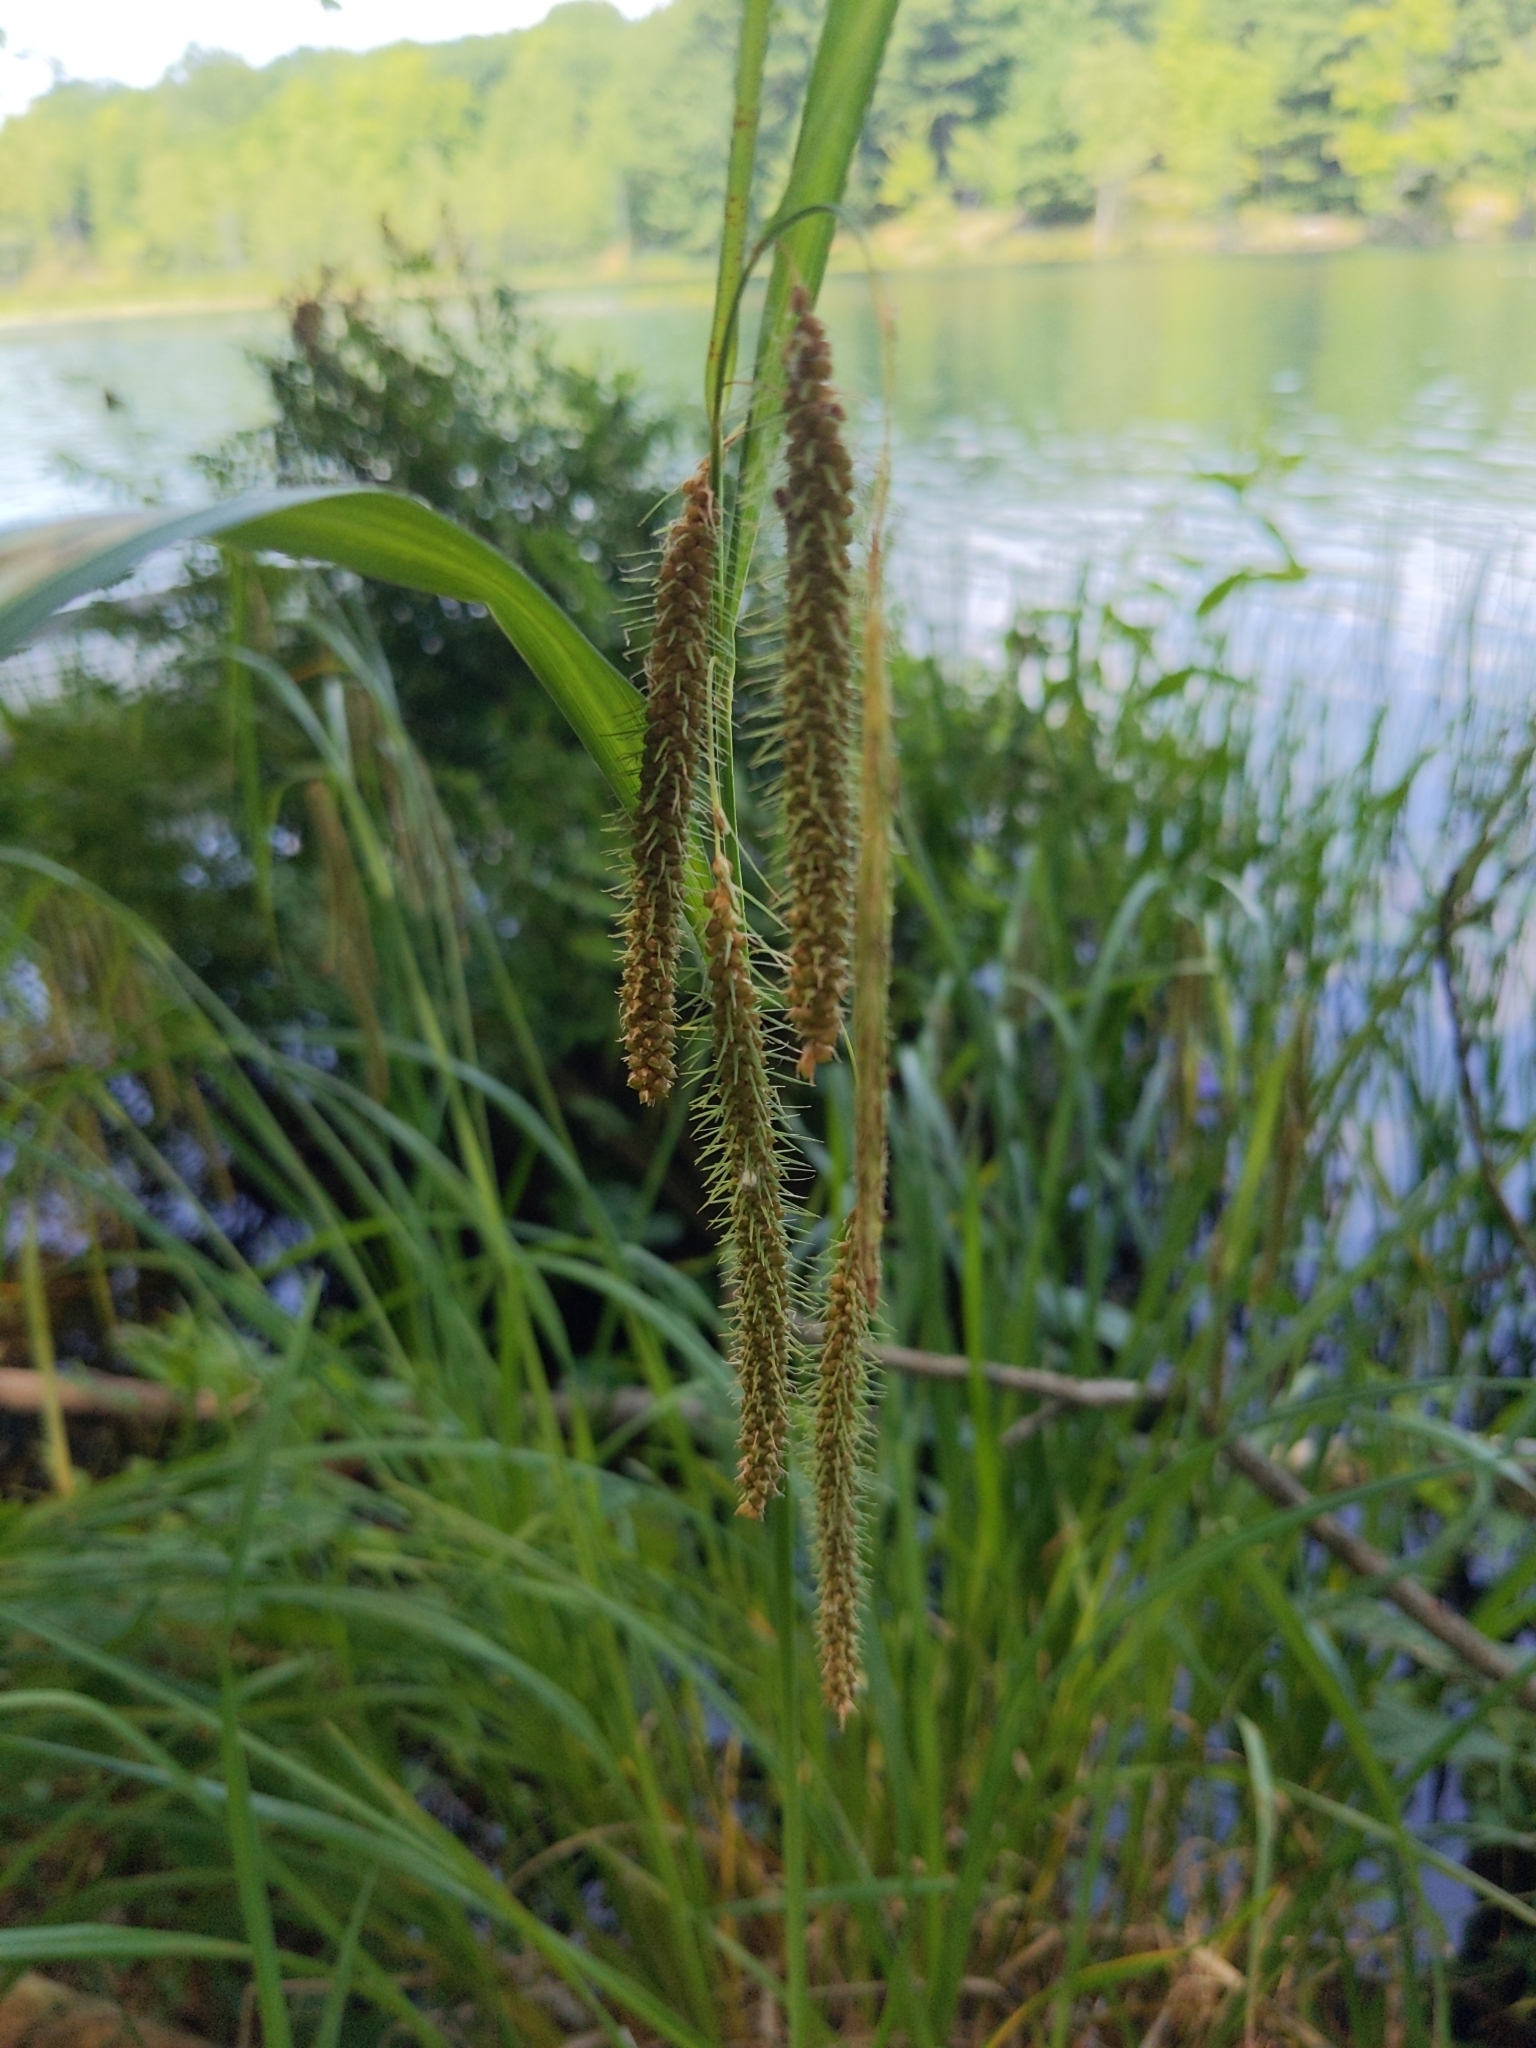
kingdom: Plantae
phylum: Tracheophyta
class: Liliopsida
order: Poales
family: Cyperaceae
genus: Carex
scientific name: Carex crinita
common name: Fringed sedge
